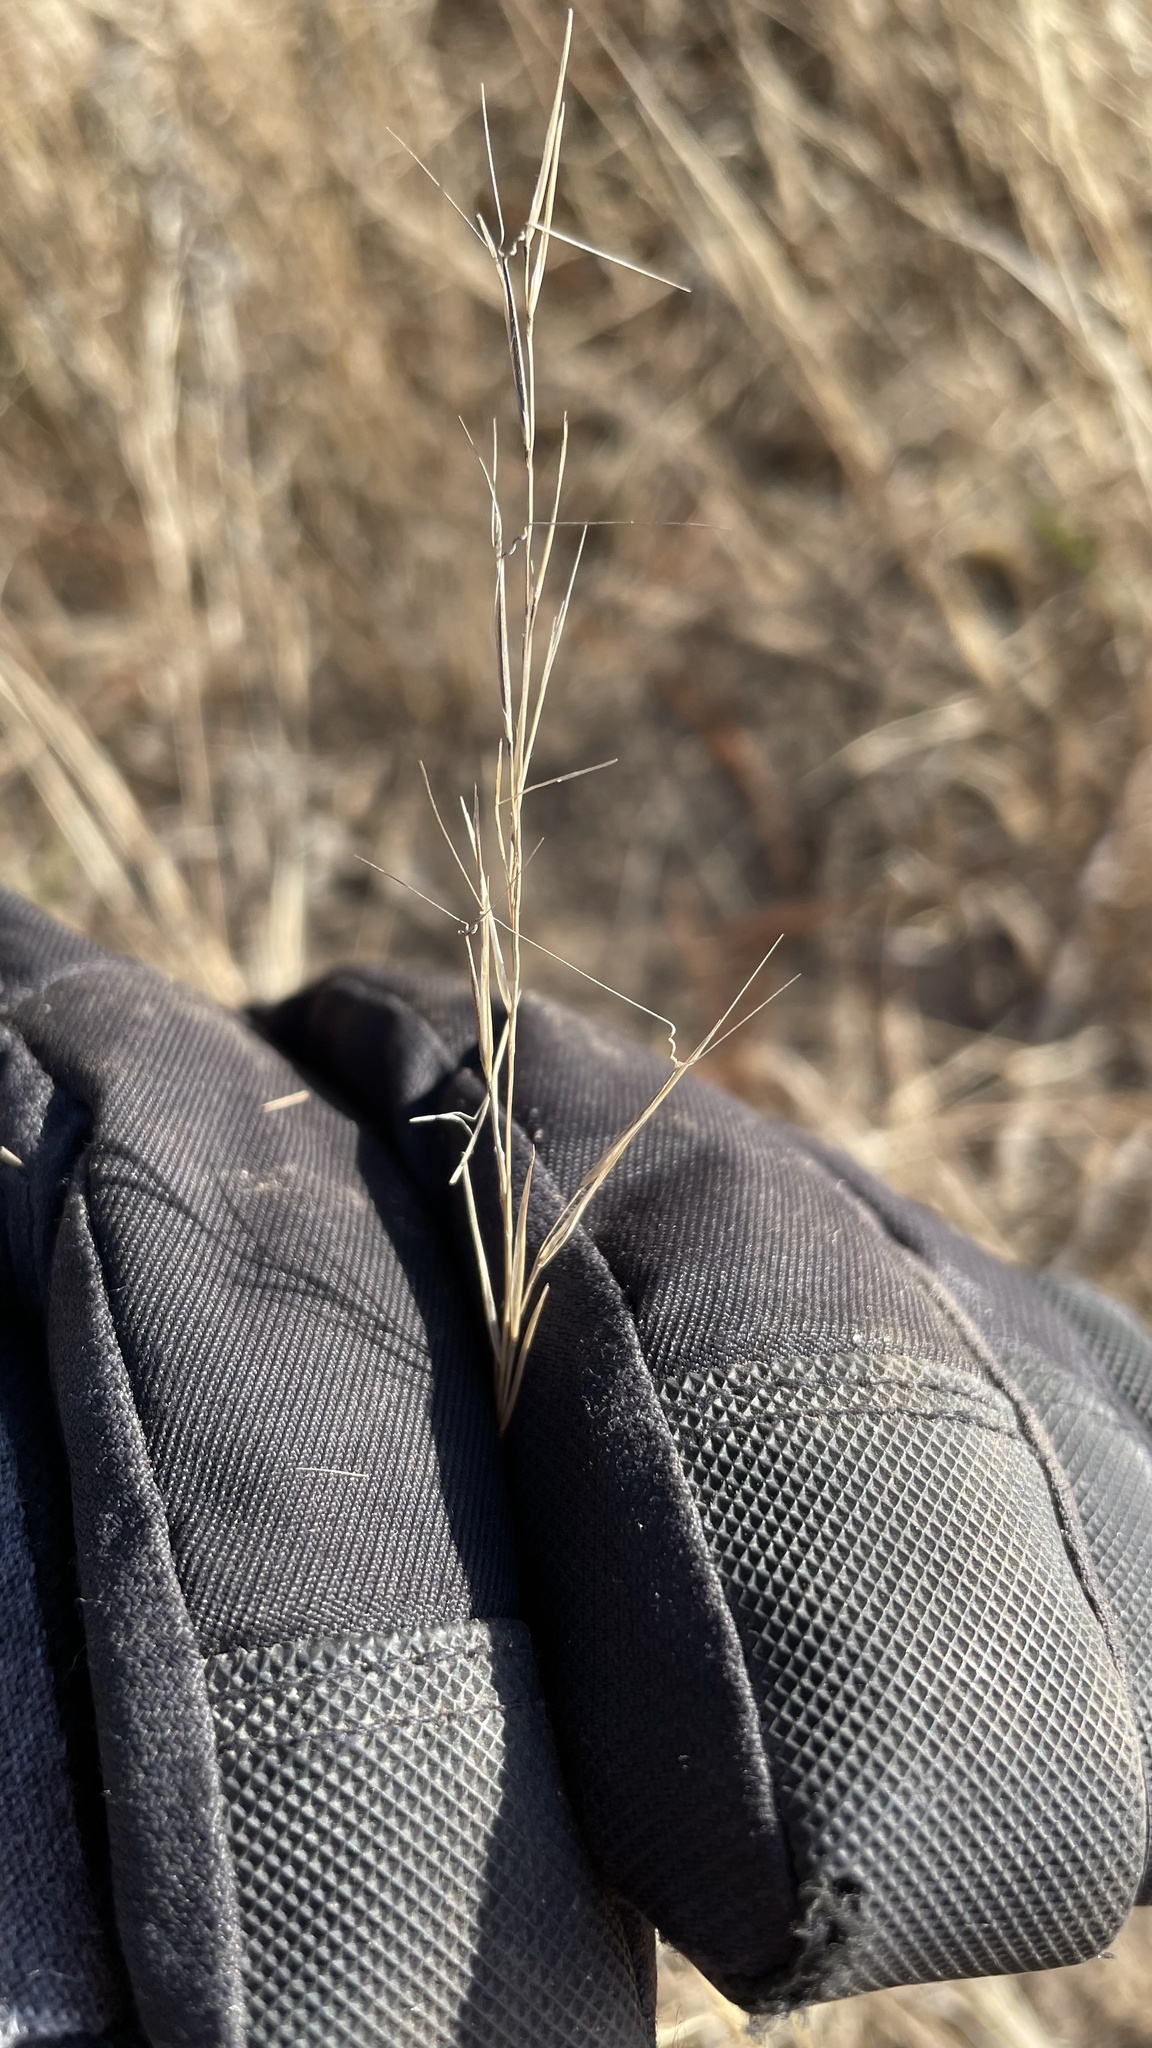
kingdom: Plantae
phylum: Tracheophyta
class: Liliopsida
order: Poales
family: Poaceae
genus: Aristida
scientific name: Aristida basiramea
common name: Forked three-awned grass
